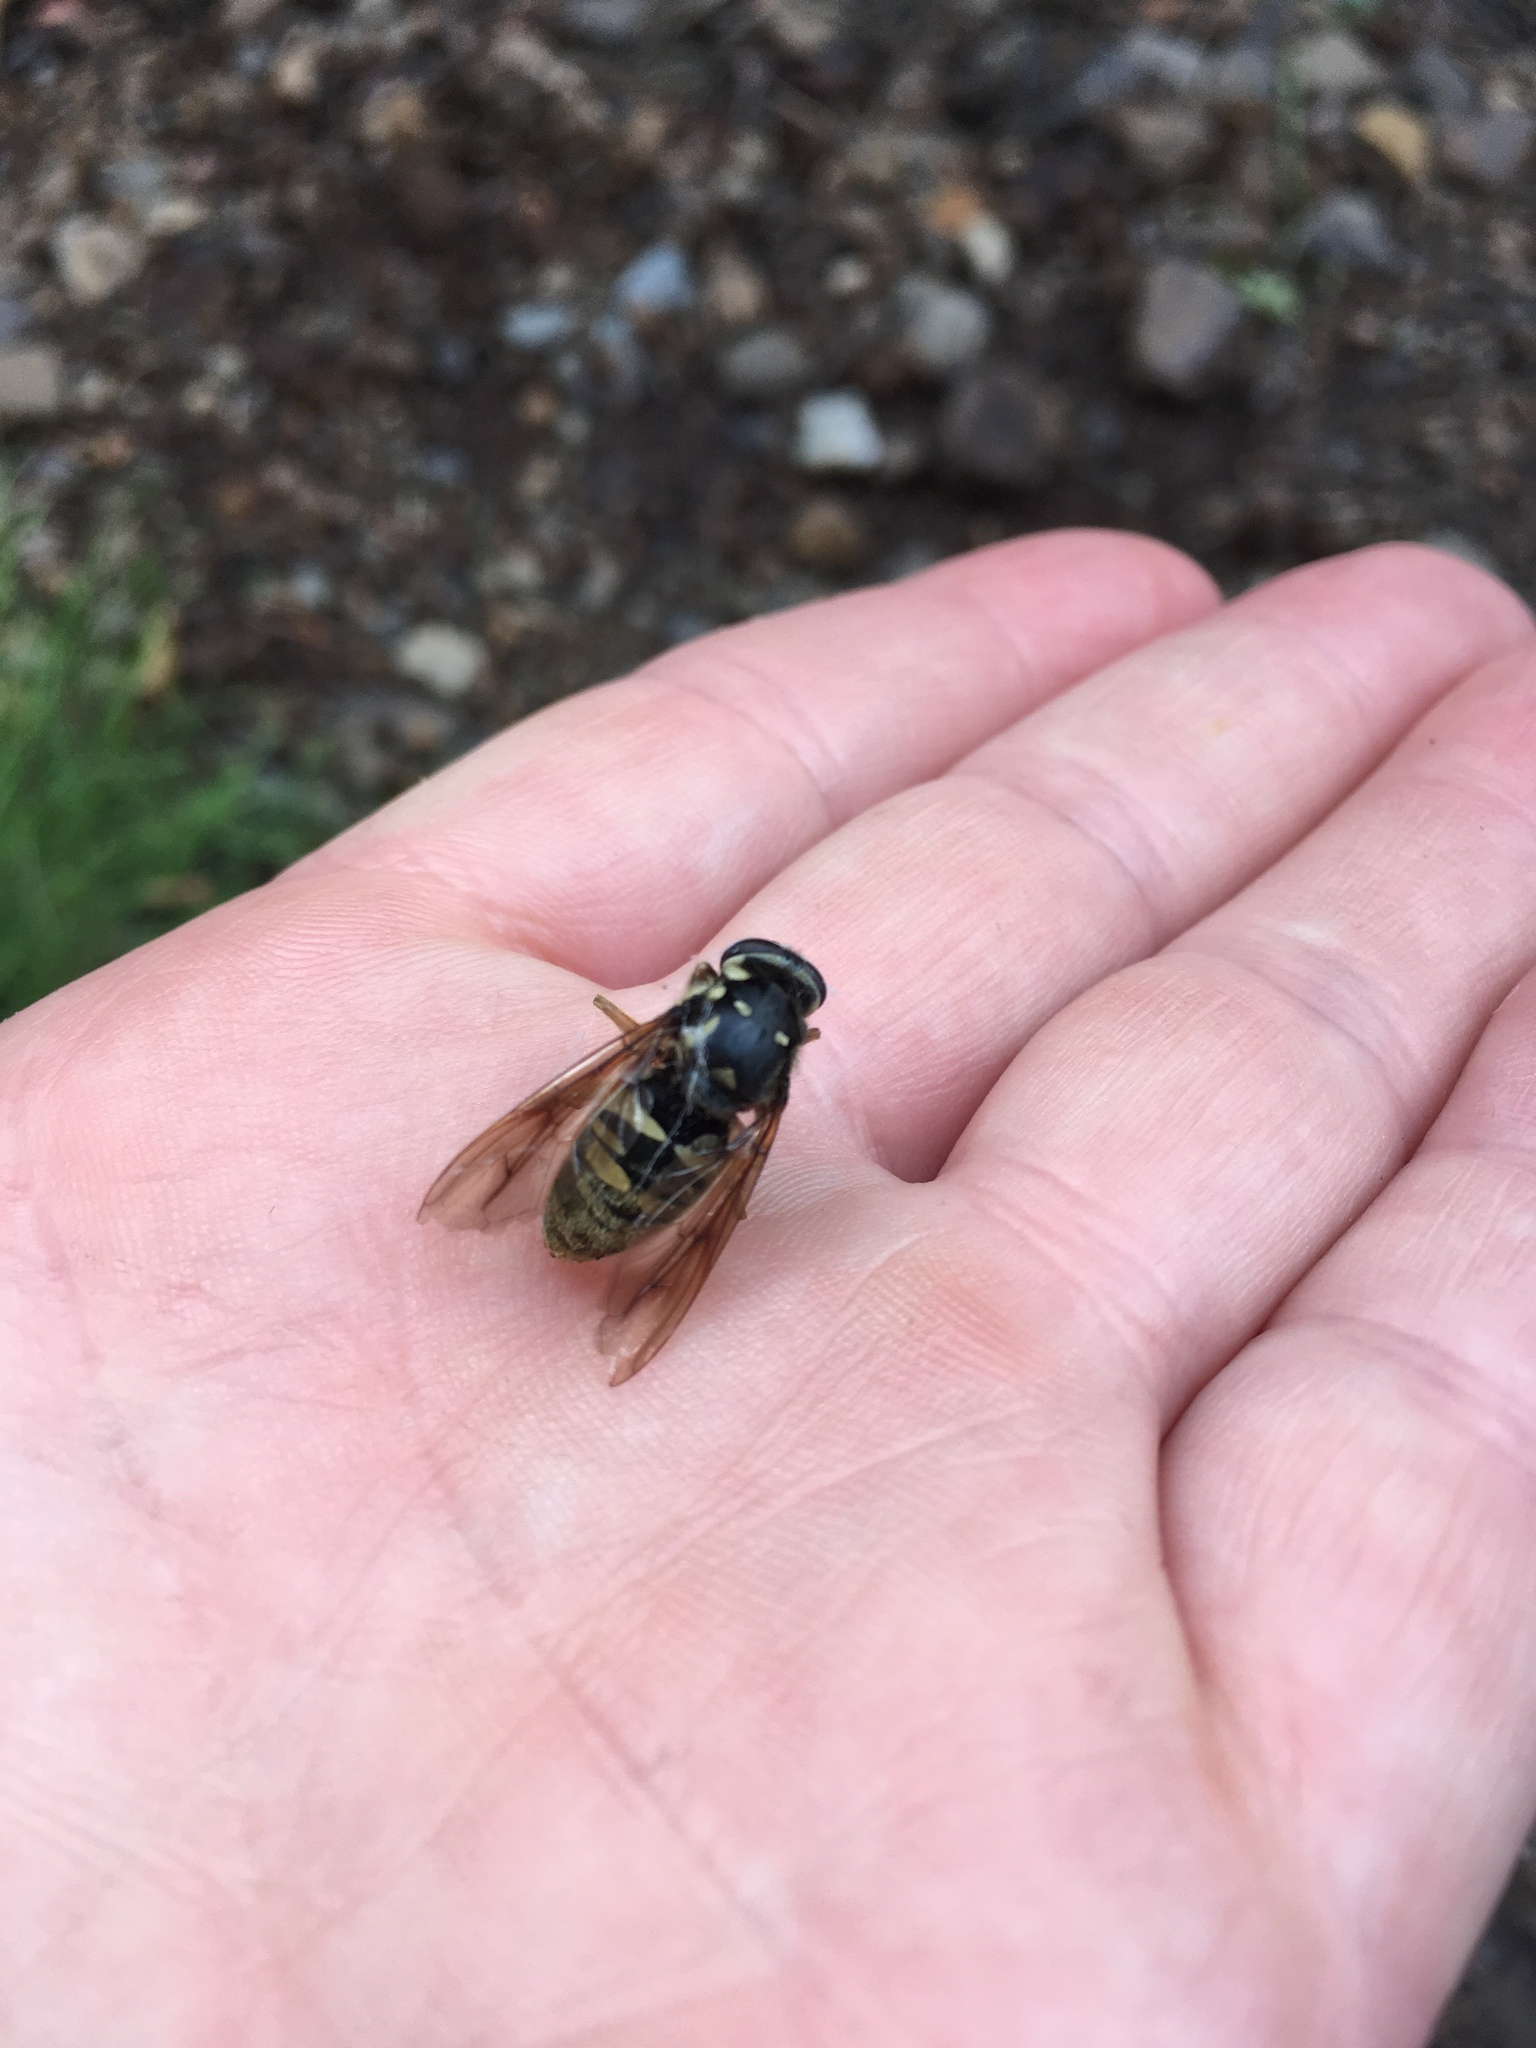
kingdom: Animalia
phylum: Arthropoda
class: Insecta
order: Diptera
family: Syrphidae
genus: Temnostoma
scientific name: Temnostoma alternans
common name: Wasp-like falsehorn
